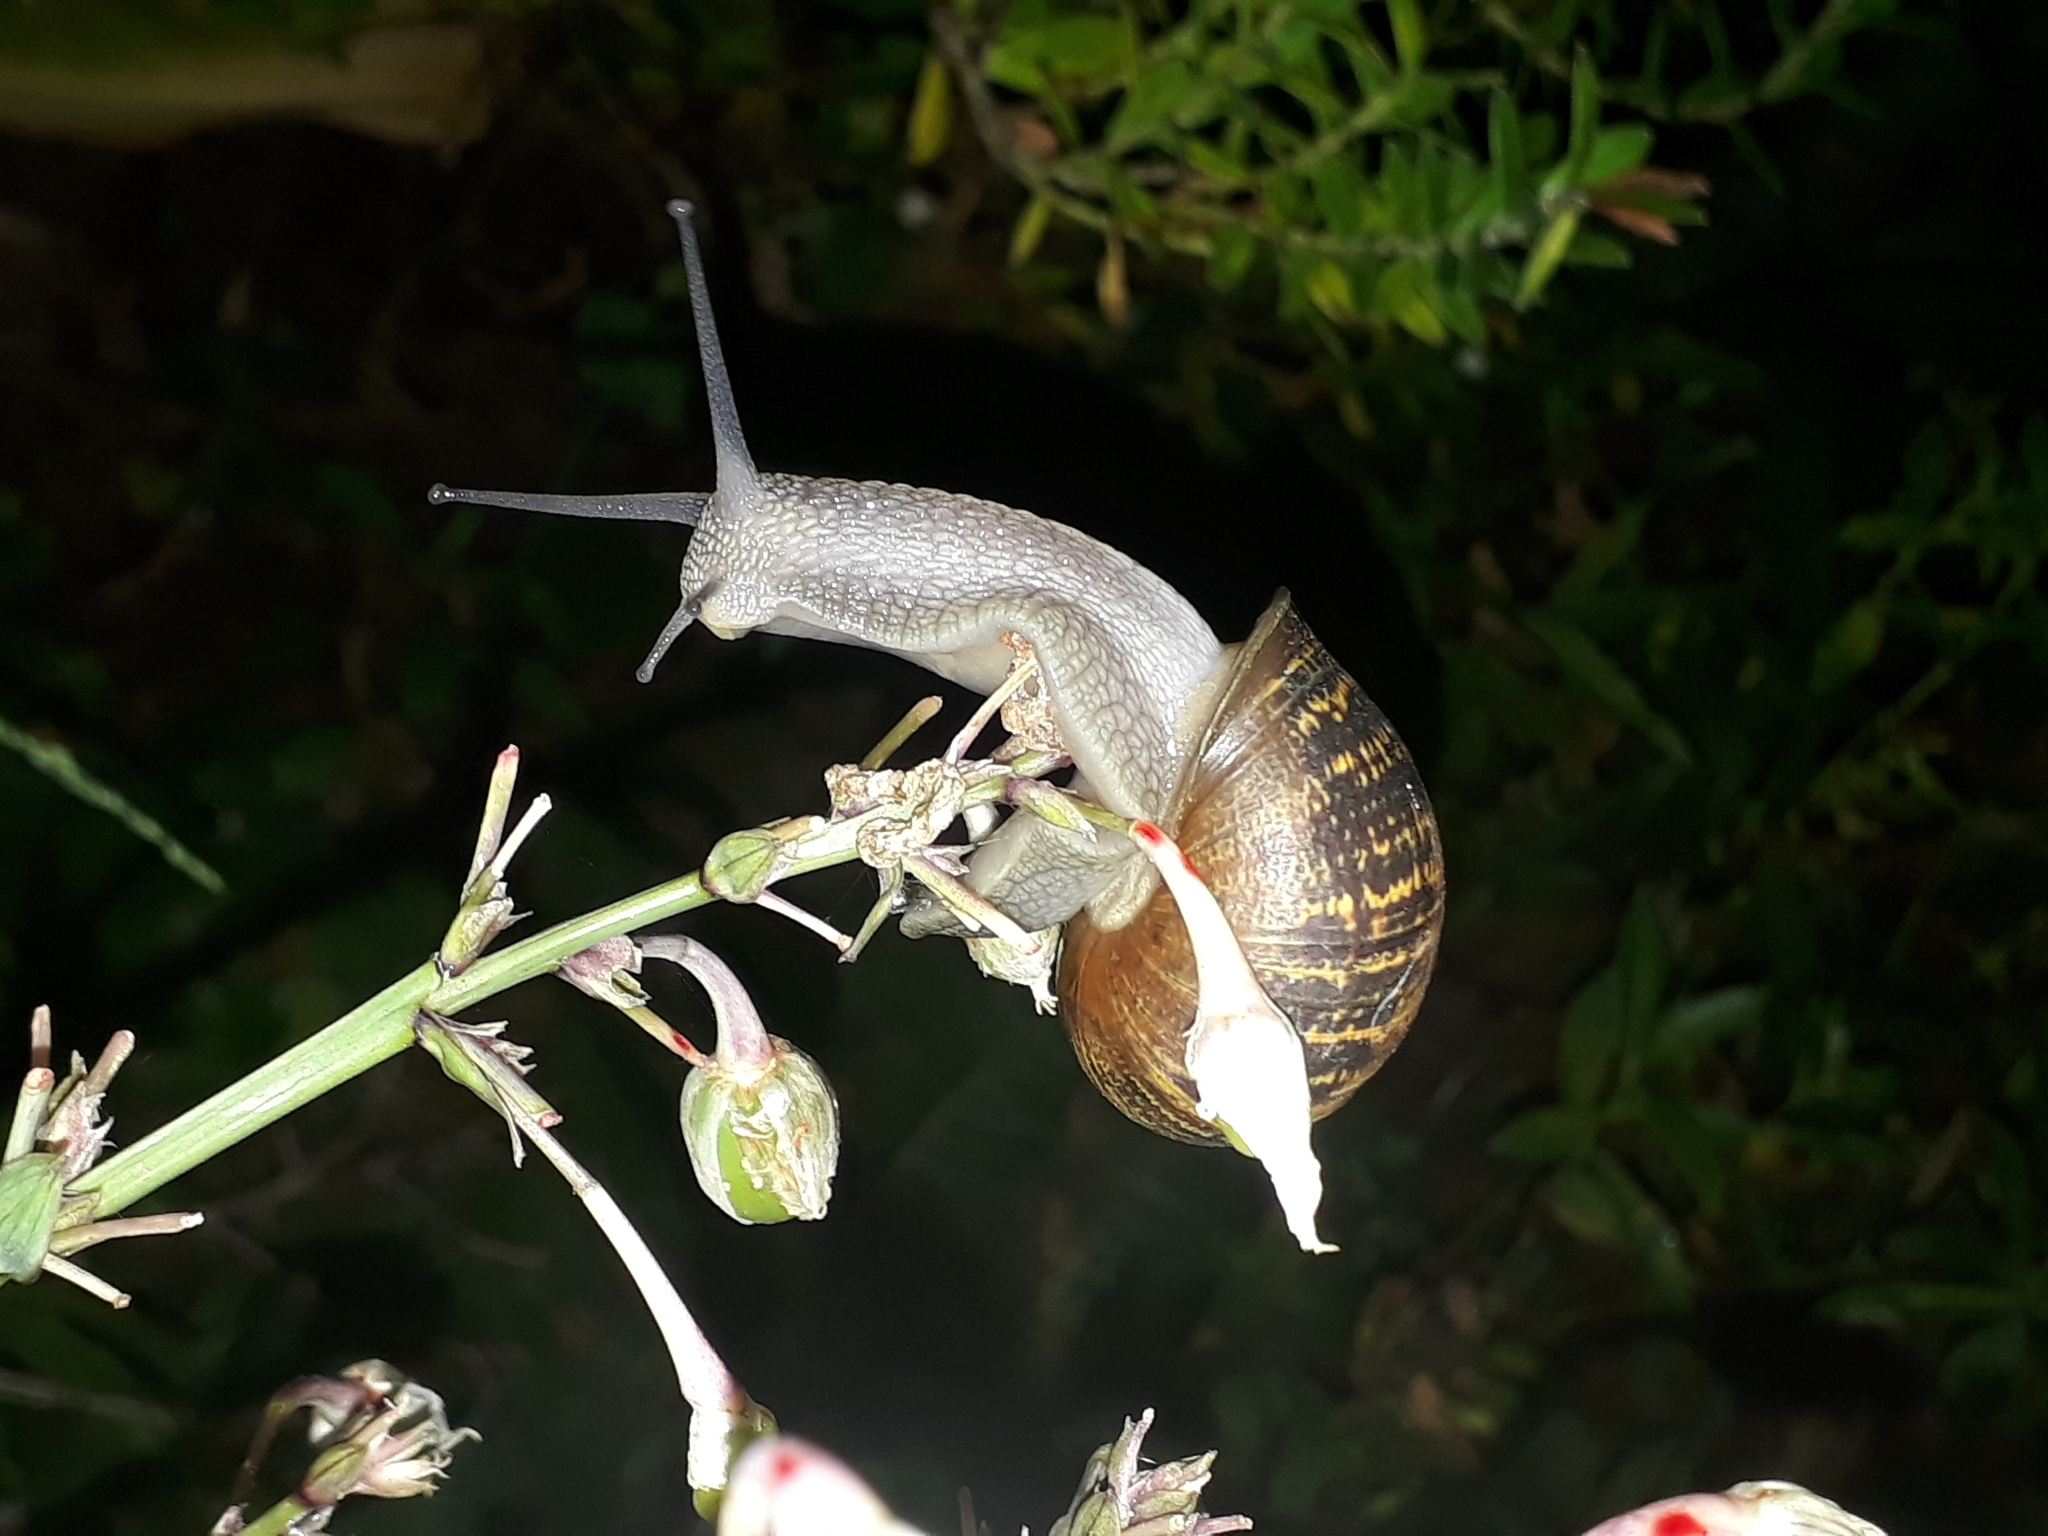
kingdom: Animalia
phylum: Mollusca
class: Gastropoda
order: Stylommatophora
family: Helicidae
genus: Cornu
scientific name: Cornu aspersum
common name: Brown garden snail
